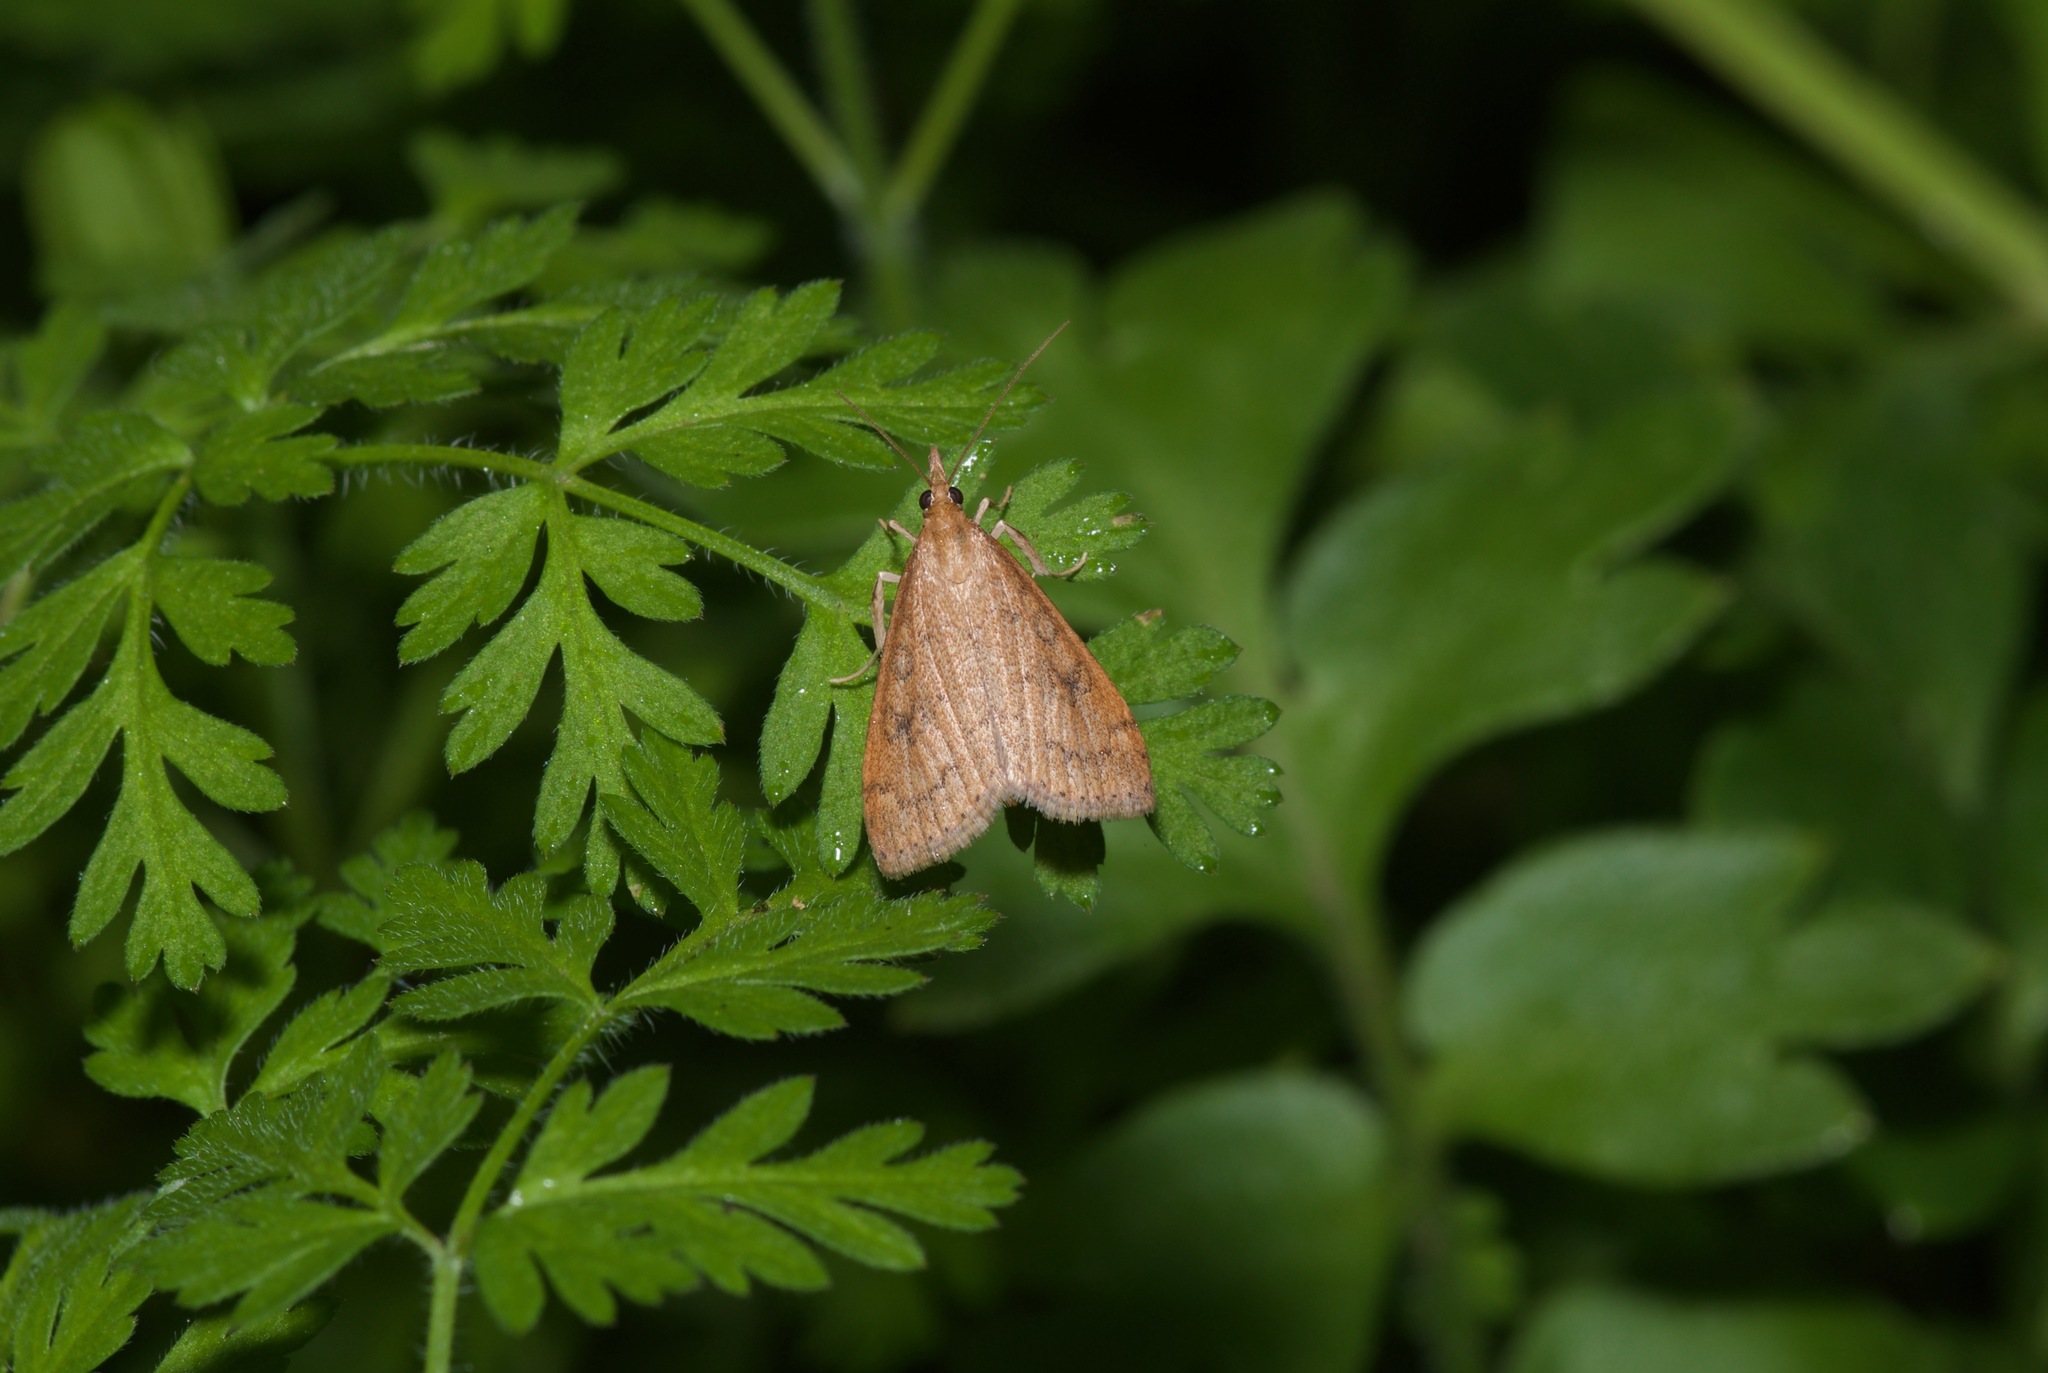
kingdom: Animalia
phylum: Arthropoda
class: Insecta
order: Lepidoptera
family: Crambidae
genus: Udea
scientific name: Udea rubigalis
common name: Celery leaftier moth
